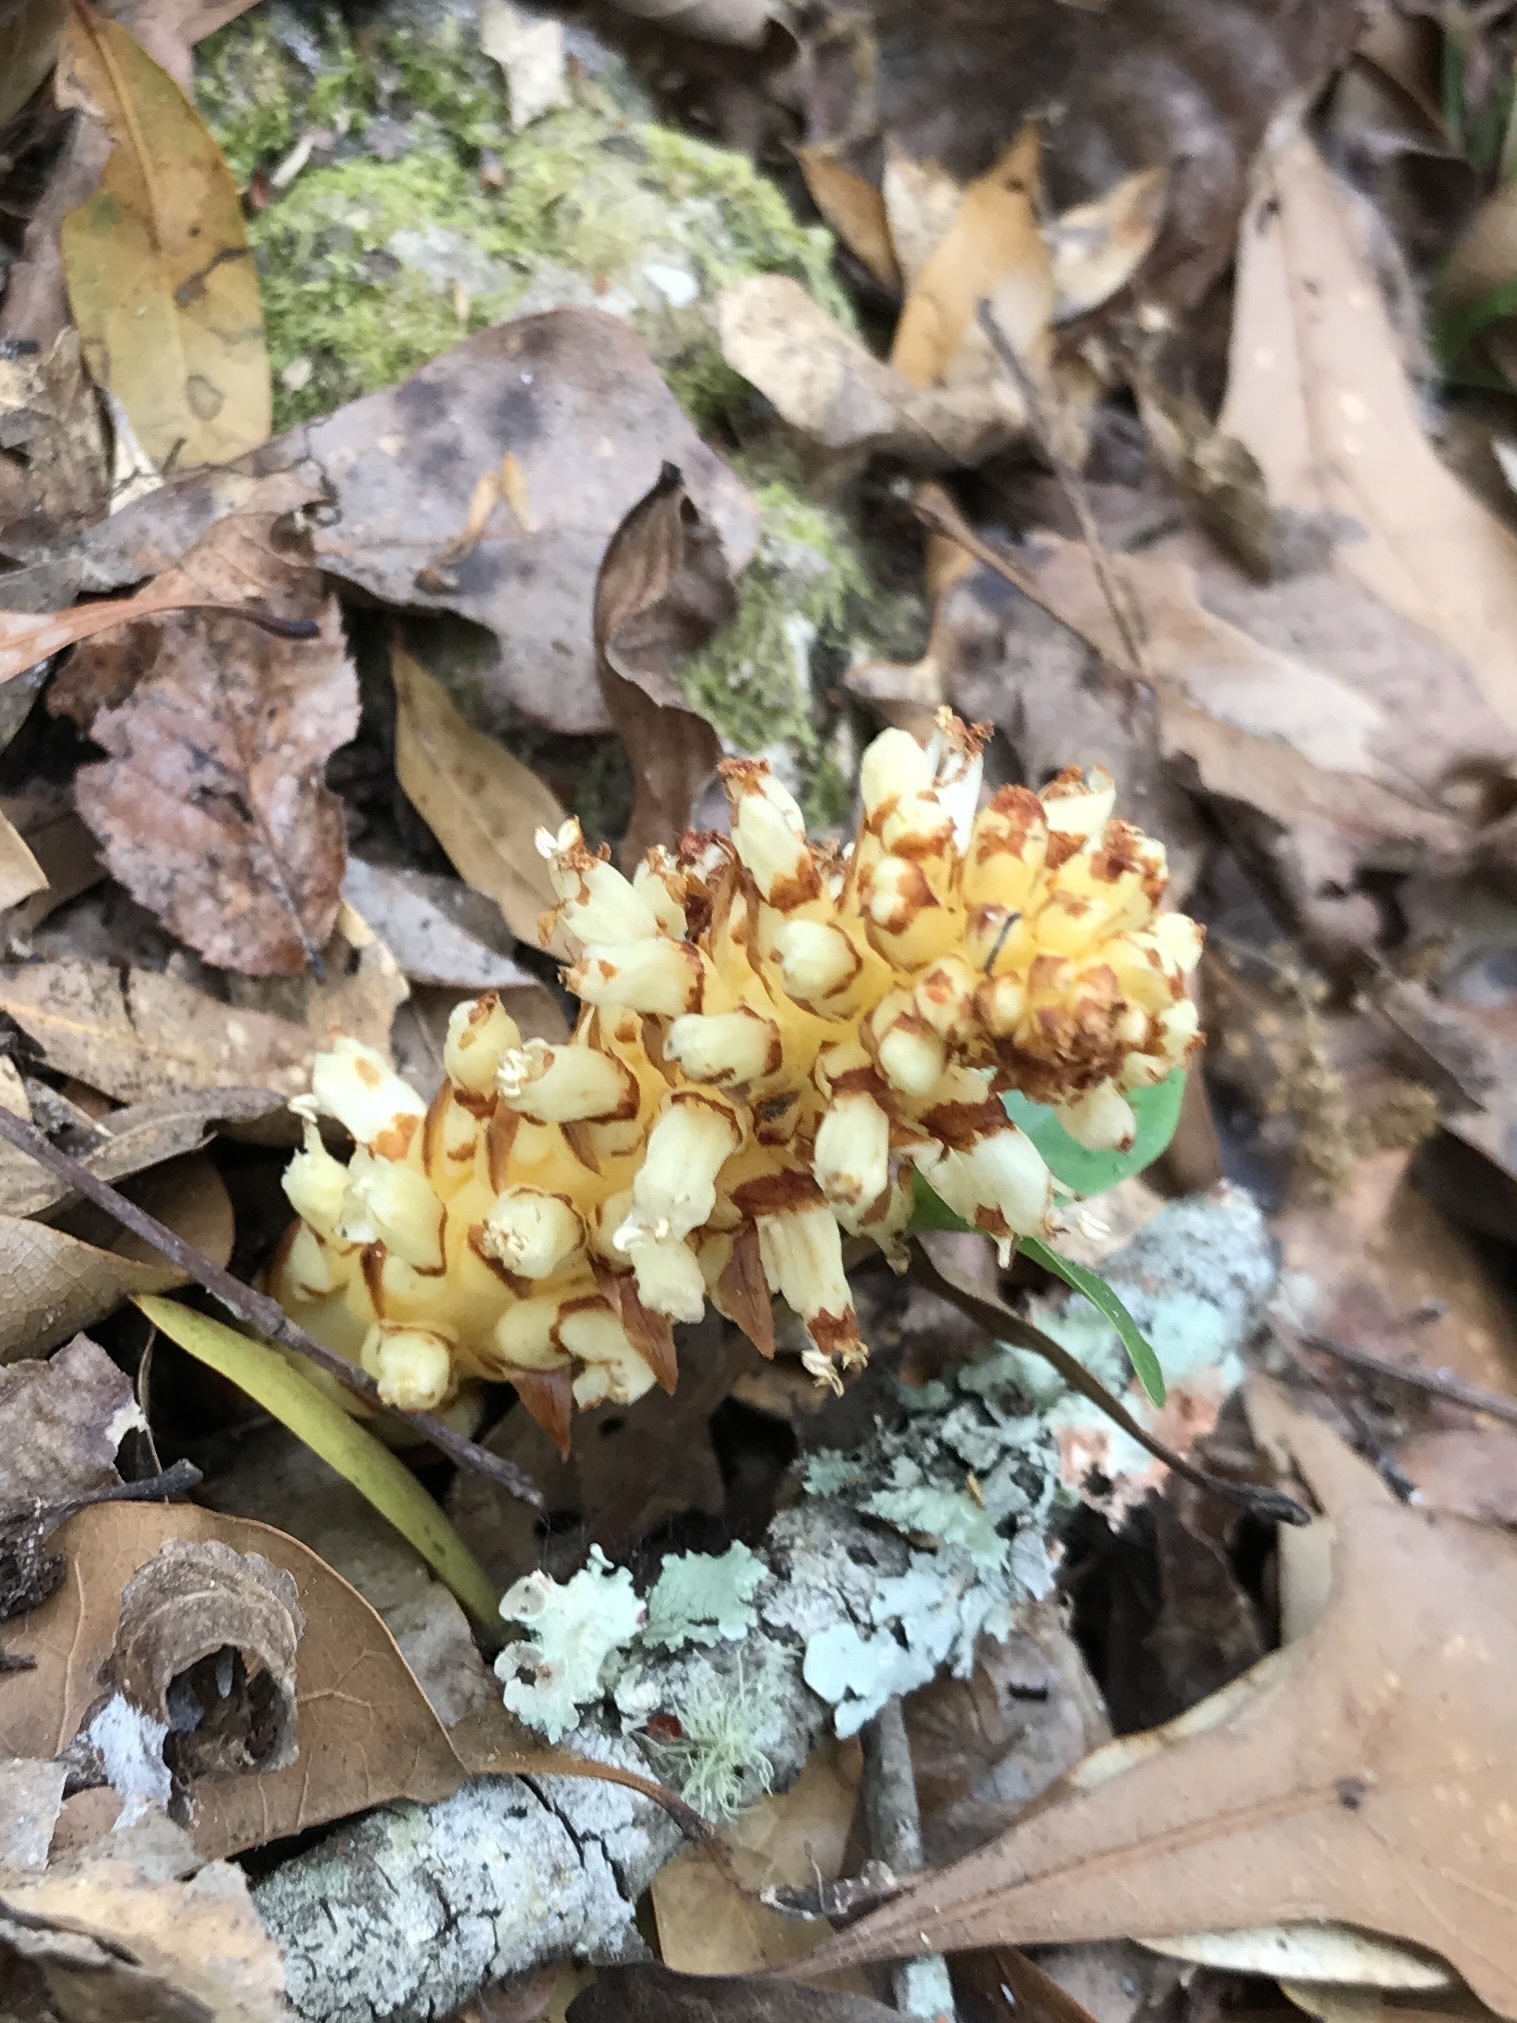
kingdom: Plantae
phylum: Tracheophyta
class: Magnoliopsida
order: Lamiales
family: Orobanchaceae
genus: Conopholis
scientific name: Conopholis americana
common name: American cancer-root
